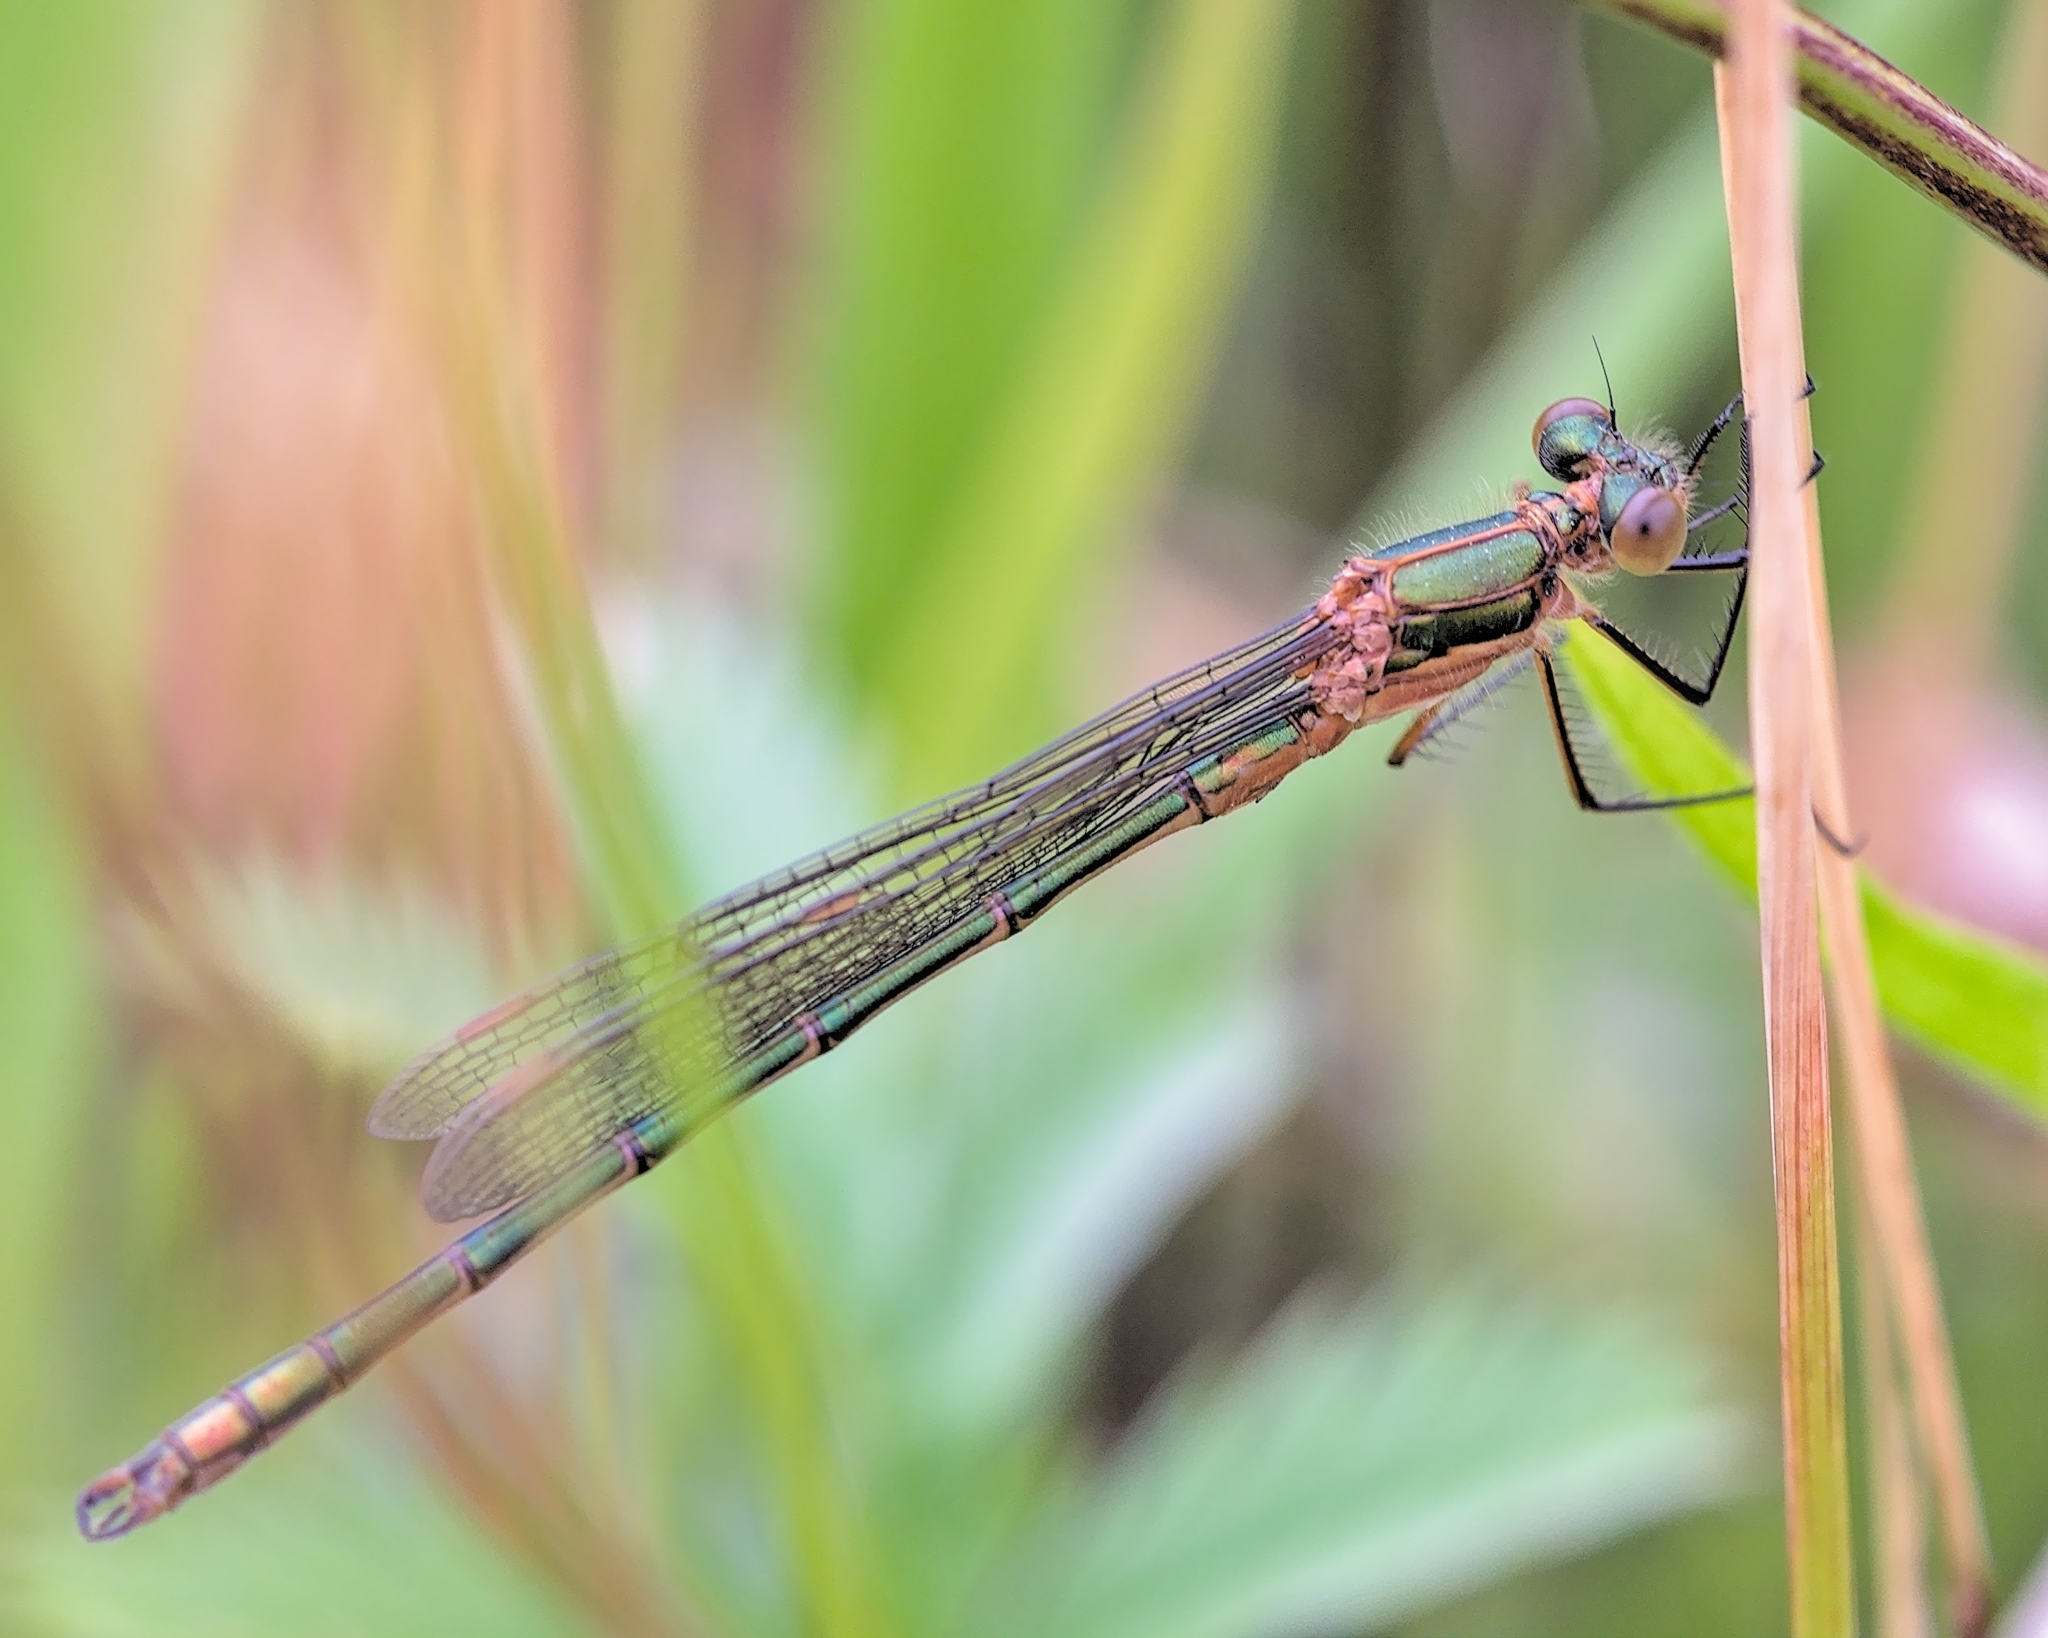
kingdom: Animalia
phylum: Arthropoda
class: Insecta
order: Odonata
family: Lestidae
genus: Lestes
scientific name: Lestes sponsa
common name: Common spreadwing
